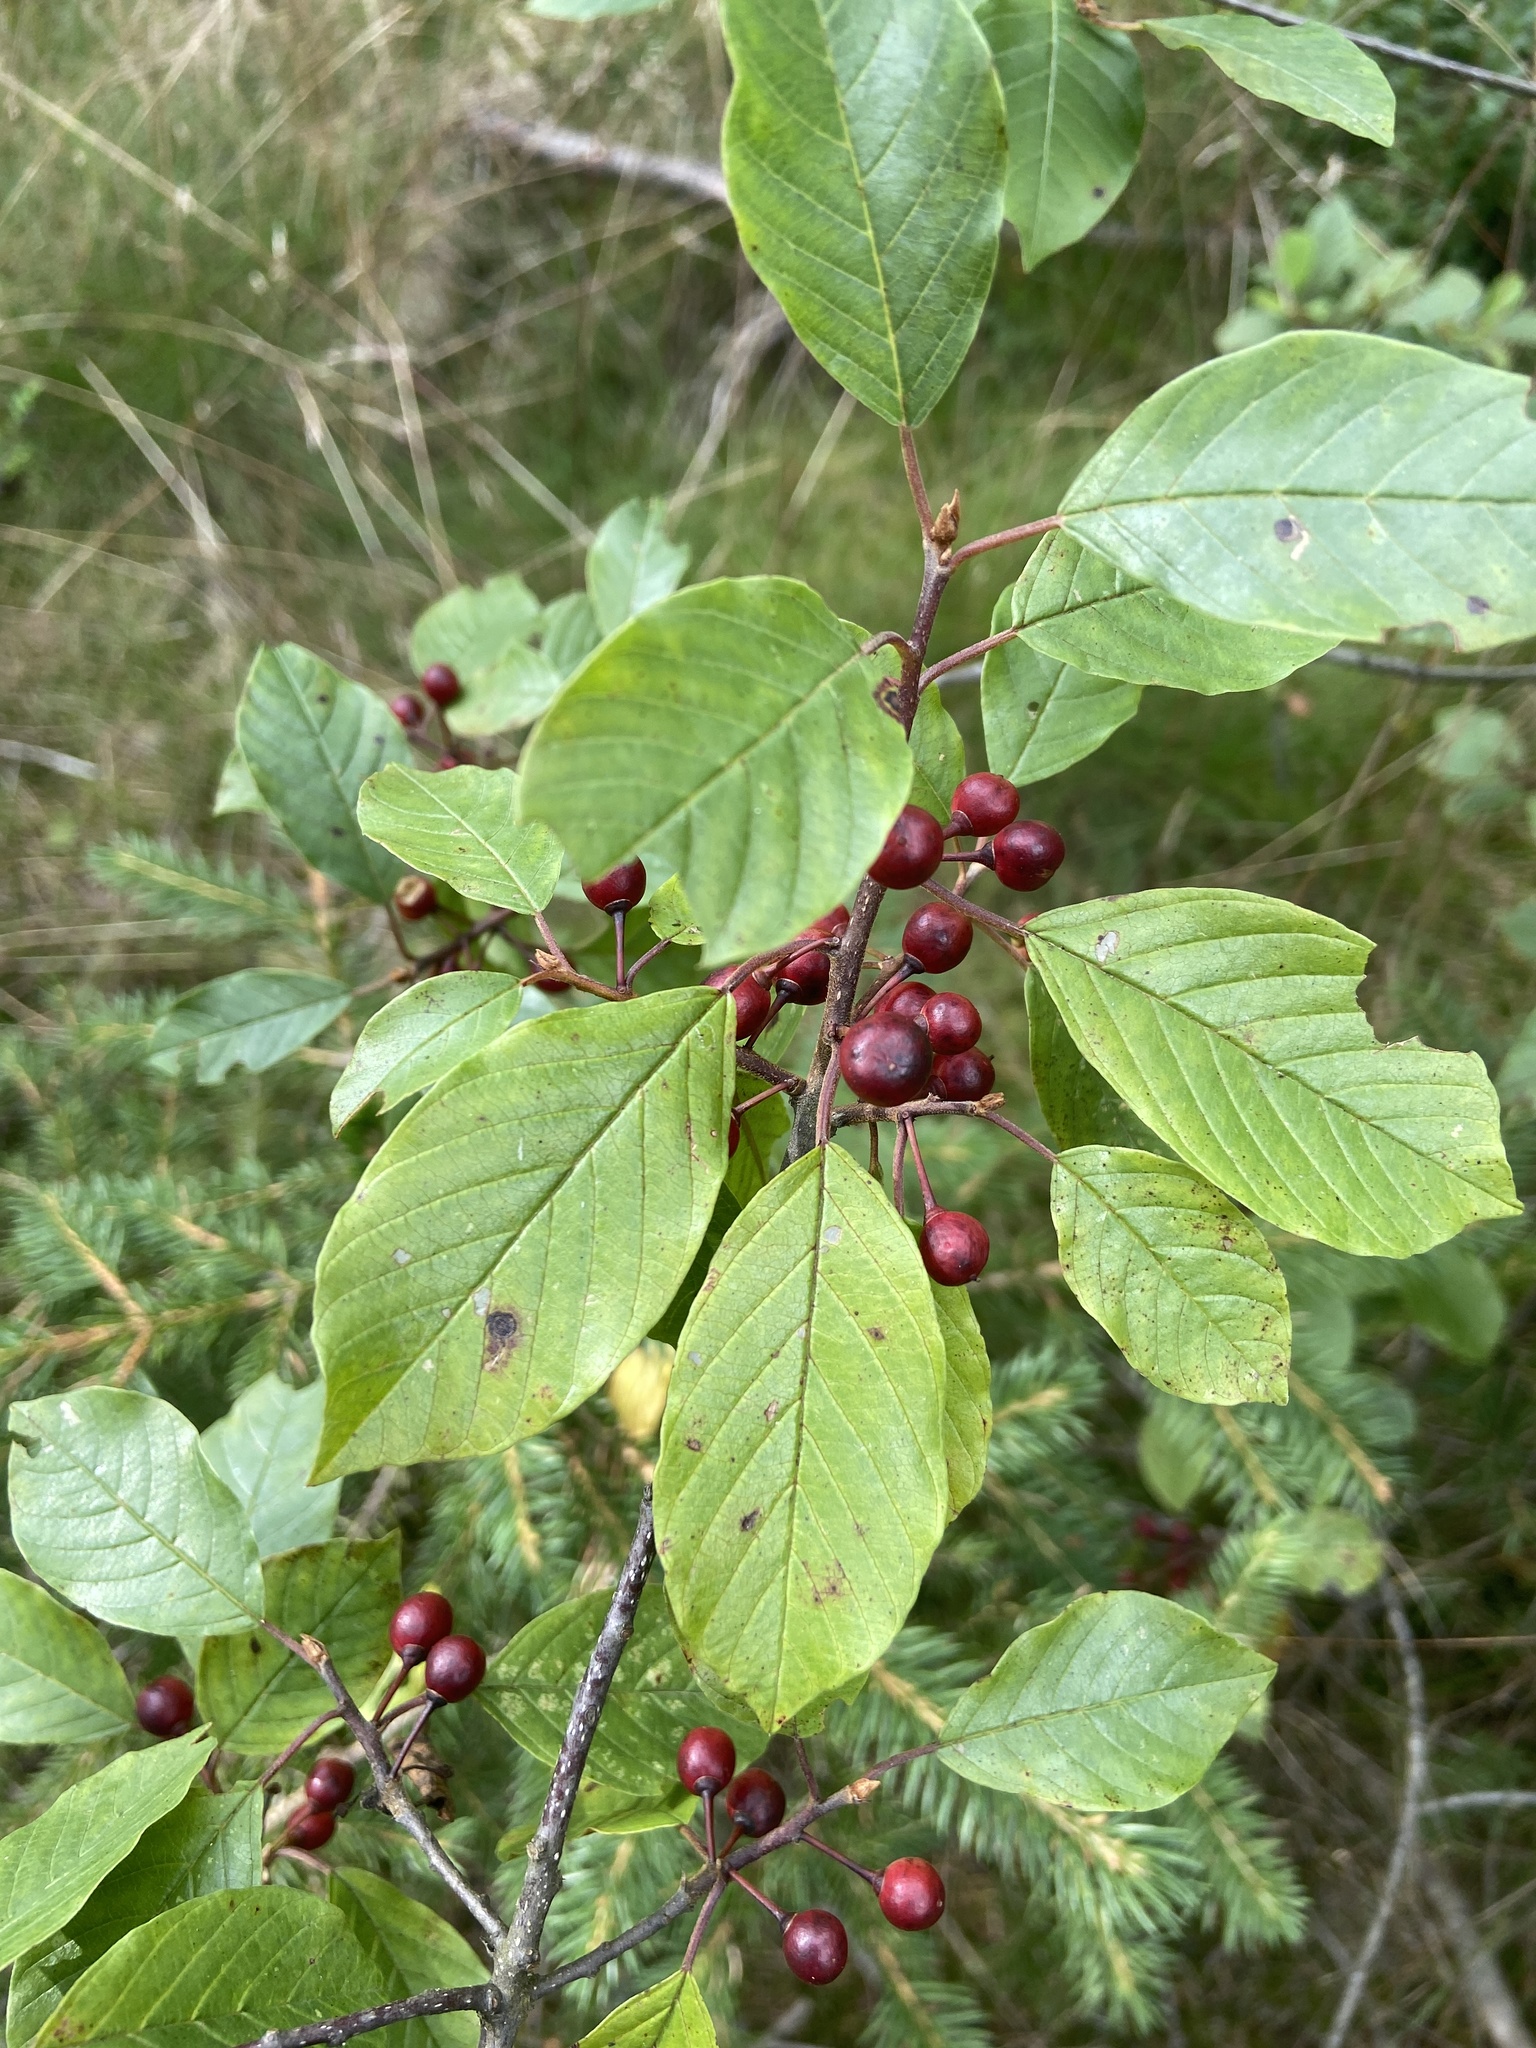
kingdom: Plantae
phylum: Tracheophyta
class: Magnoliopsida
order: Rosales
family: Rhamnaceae
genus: Frangula
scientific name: Frangula alnus
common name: Alder buckthorn
